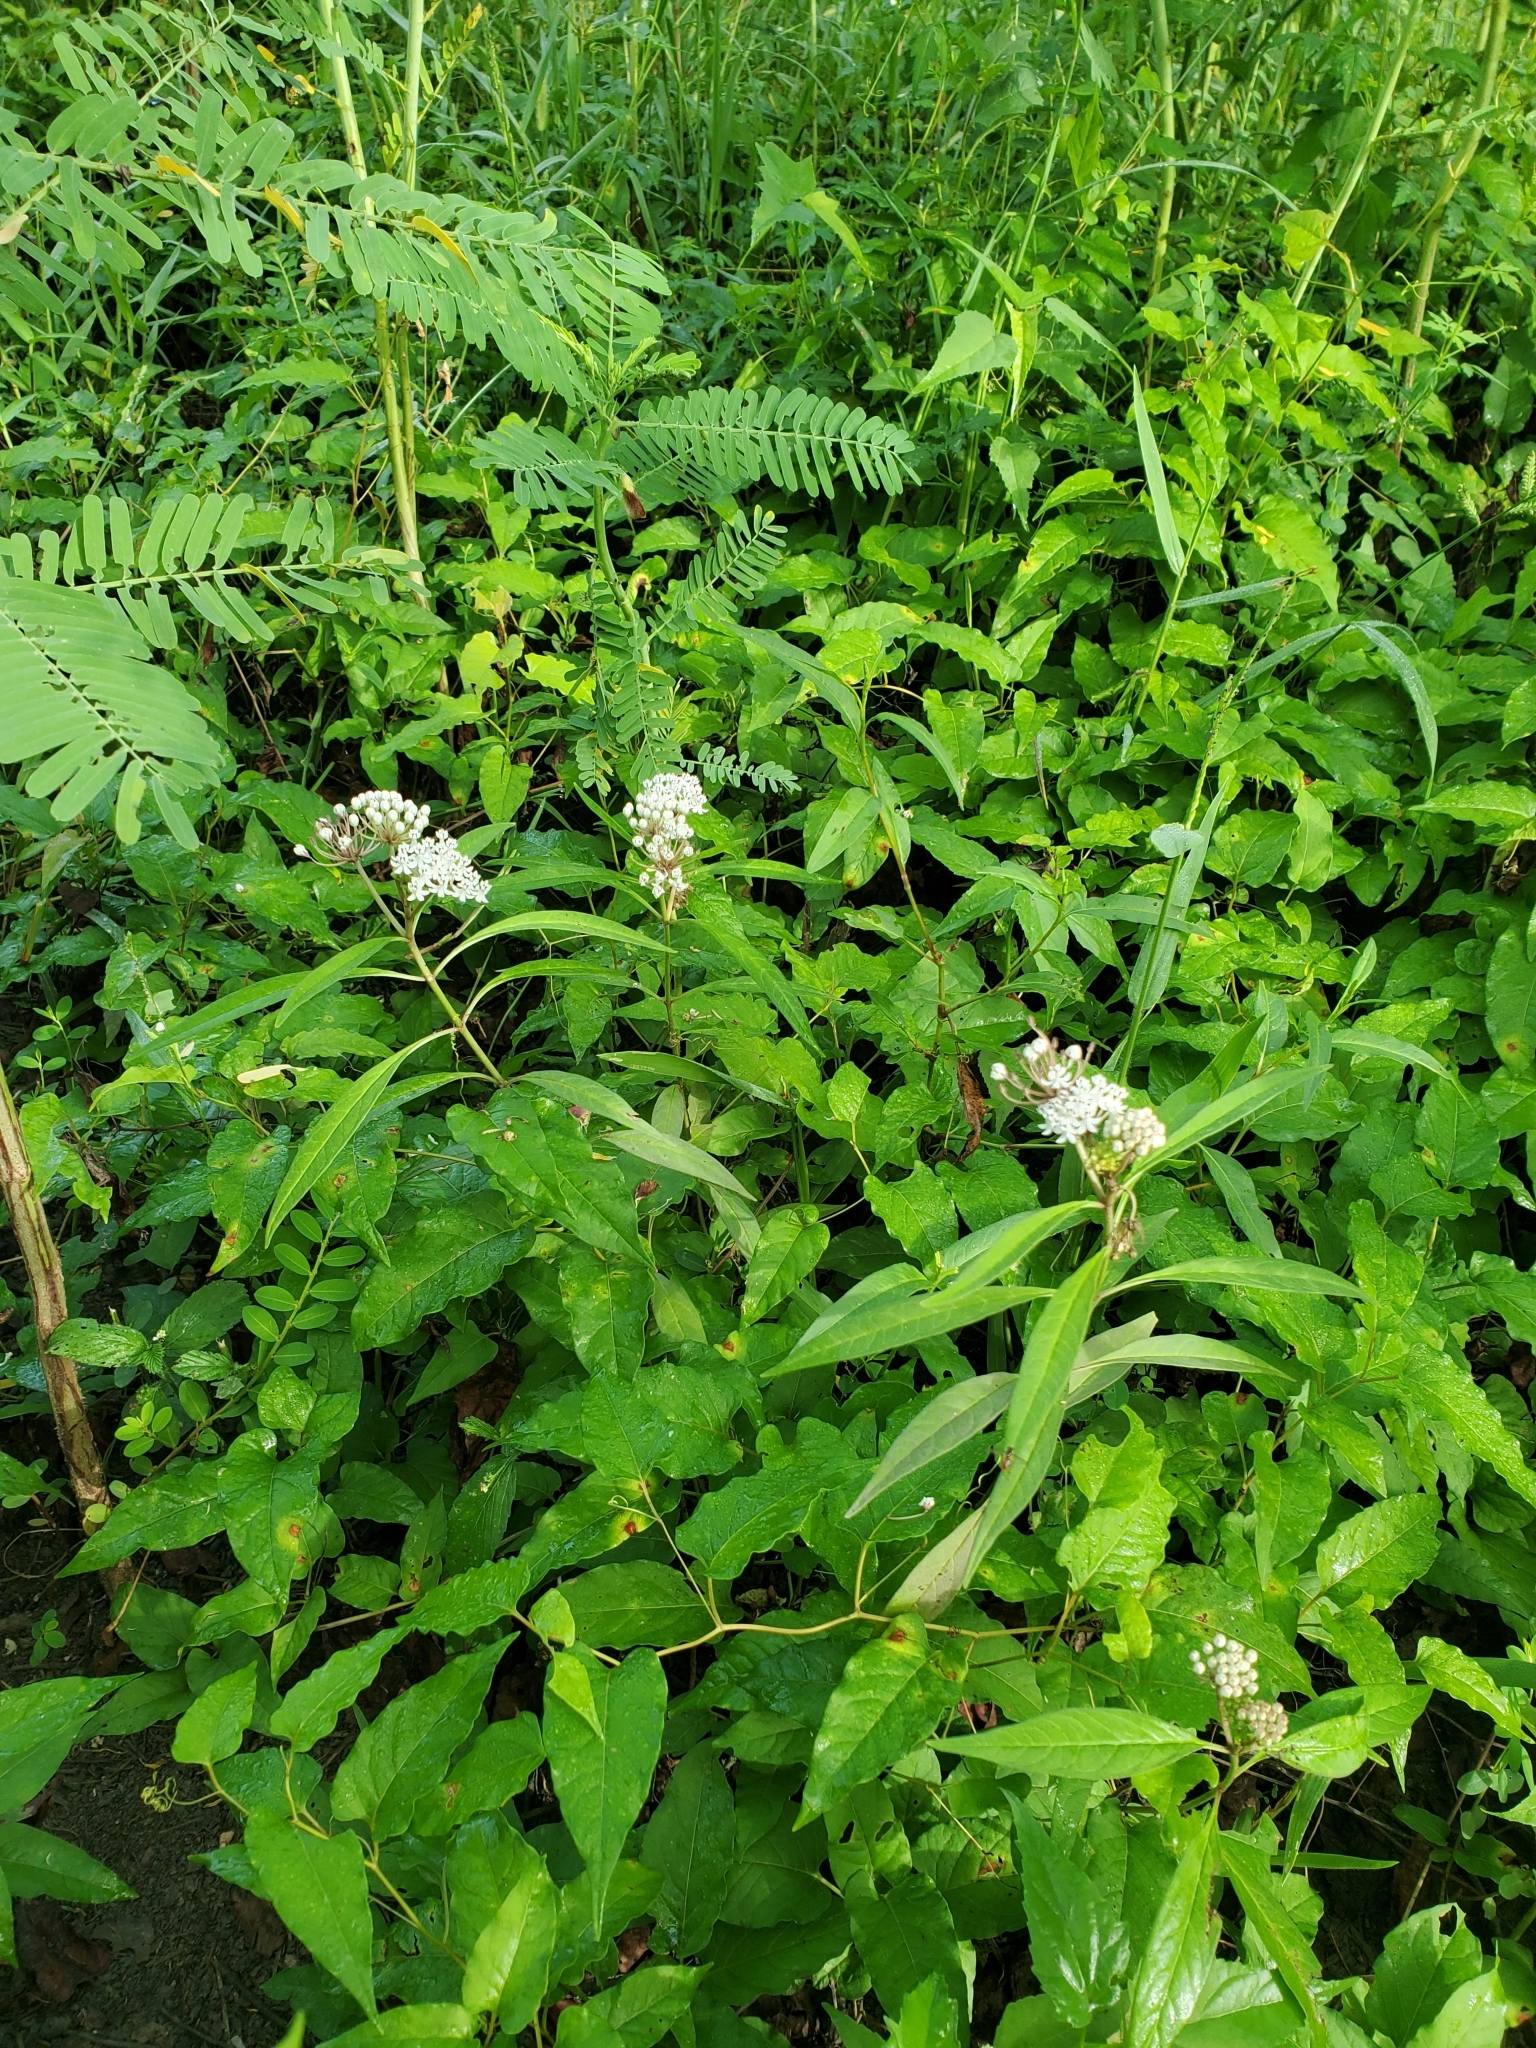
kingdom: Plantae
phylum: Tracheophyta
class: Magnoliopsida
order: Gentianales
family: Apocynaceae
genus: Asclepias
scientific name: Asclepias perennis
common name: Smooth-seed milkweed
